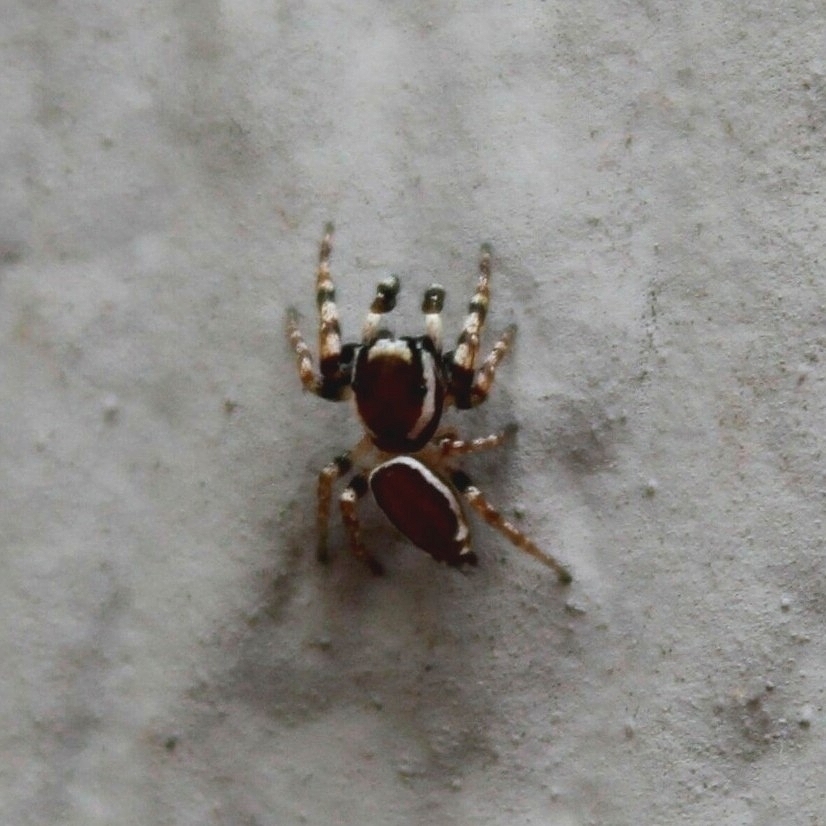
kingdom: Animalia
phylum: Arthropoda
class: Arachnida
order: Araneae
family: Salticidae
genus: Pelegrina
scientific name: Pelegrina proterva
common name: Common white-cheeked jumping spider
